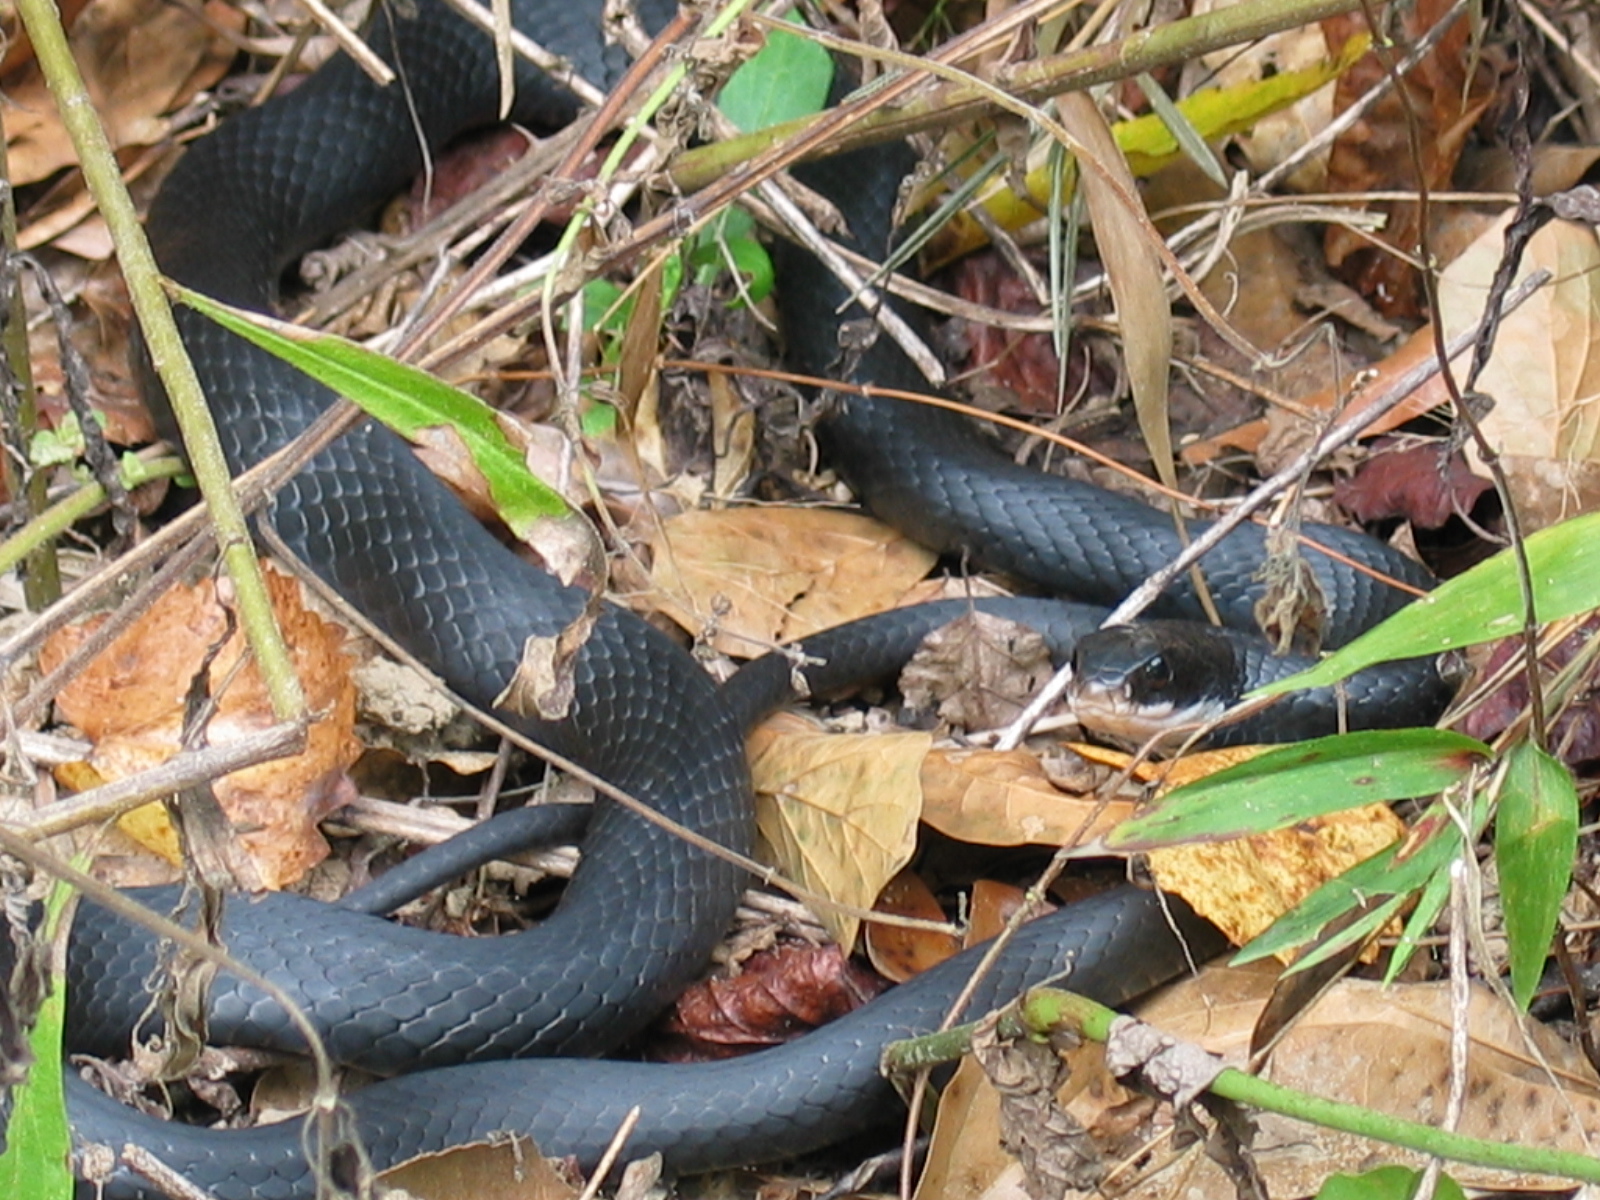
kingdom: Animalia
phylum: Chordata
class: Squamata
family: Colubridae
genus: Coluber
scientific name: Coluber constrictor
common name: Eastern racer
